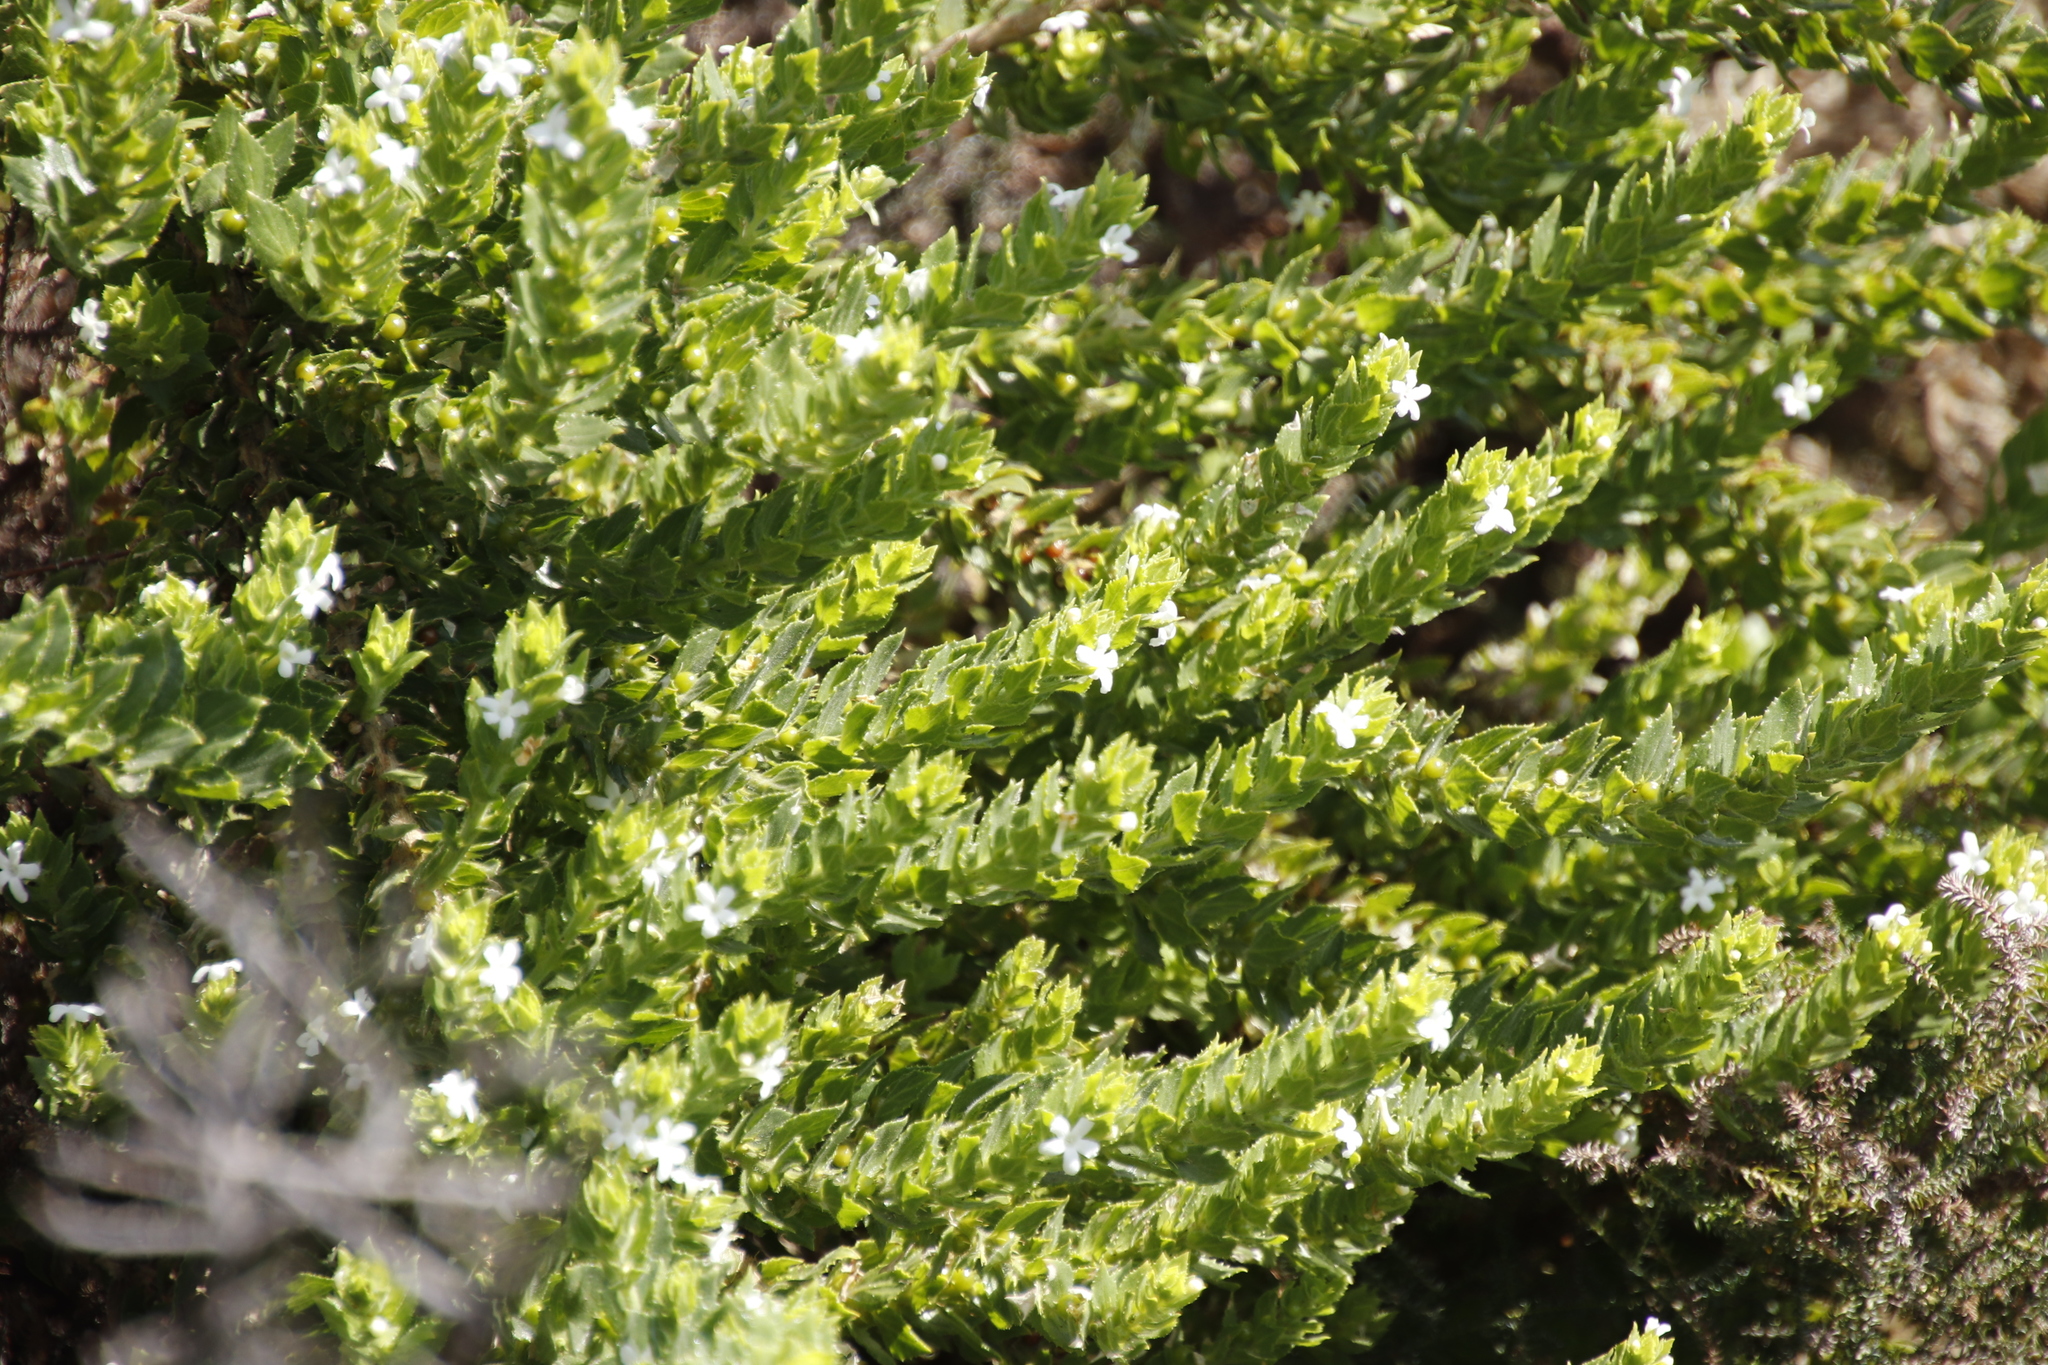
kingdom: Plantae
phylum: Tracheophyta
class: Magnoliopsida
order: Lamiales
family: Scrophulariaceae
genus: Oftia
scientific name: Oftia africana
